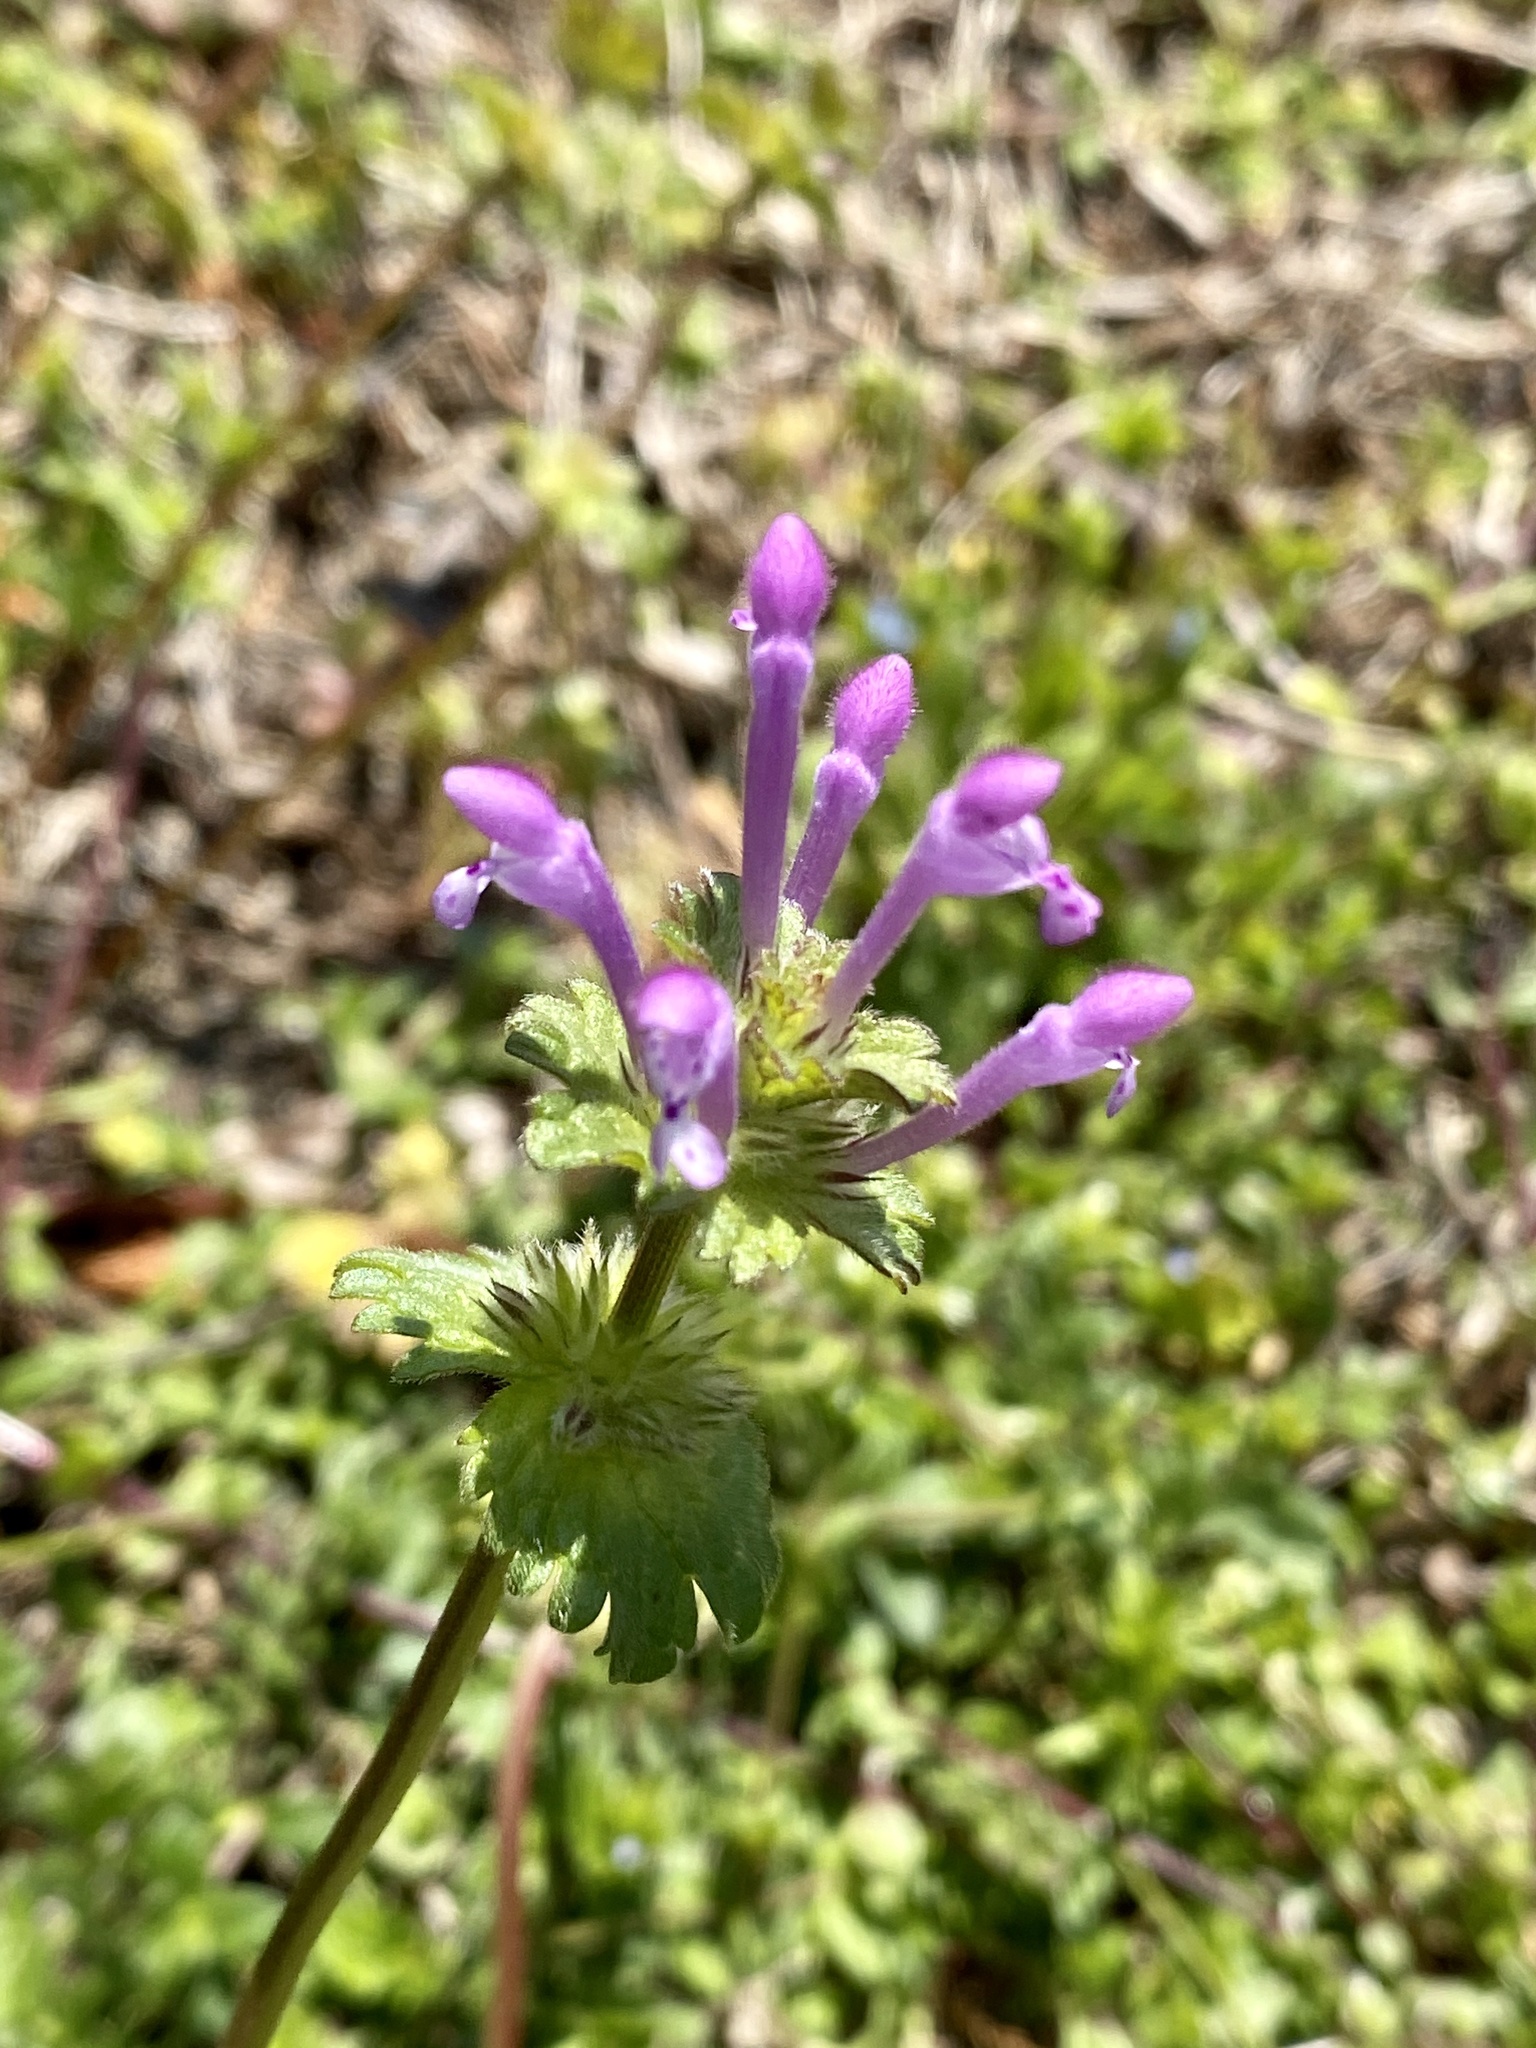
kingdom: Plantae
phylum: Tracheophyta
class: Magnoliopsida
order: Lamiales
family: Lamiaceae
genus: Lamium
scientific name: Lamium amplexicaule
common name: Henbit dead-nettle
